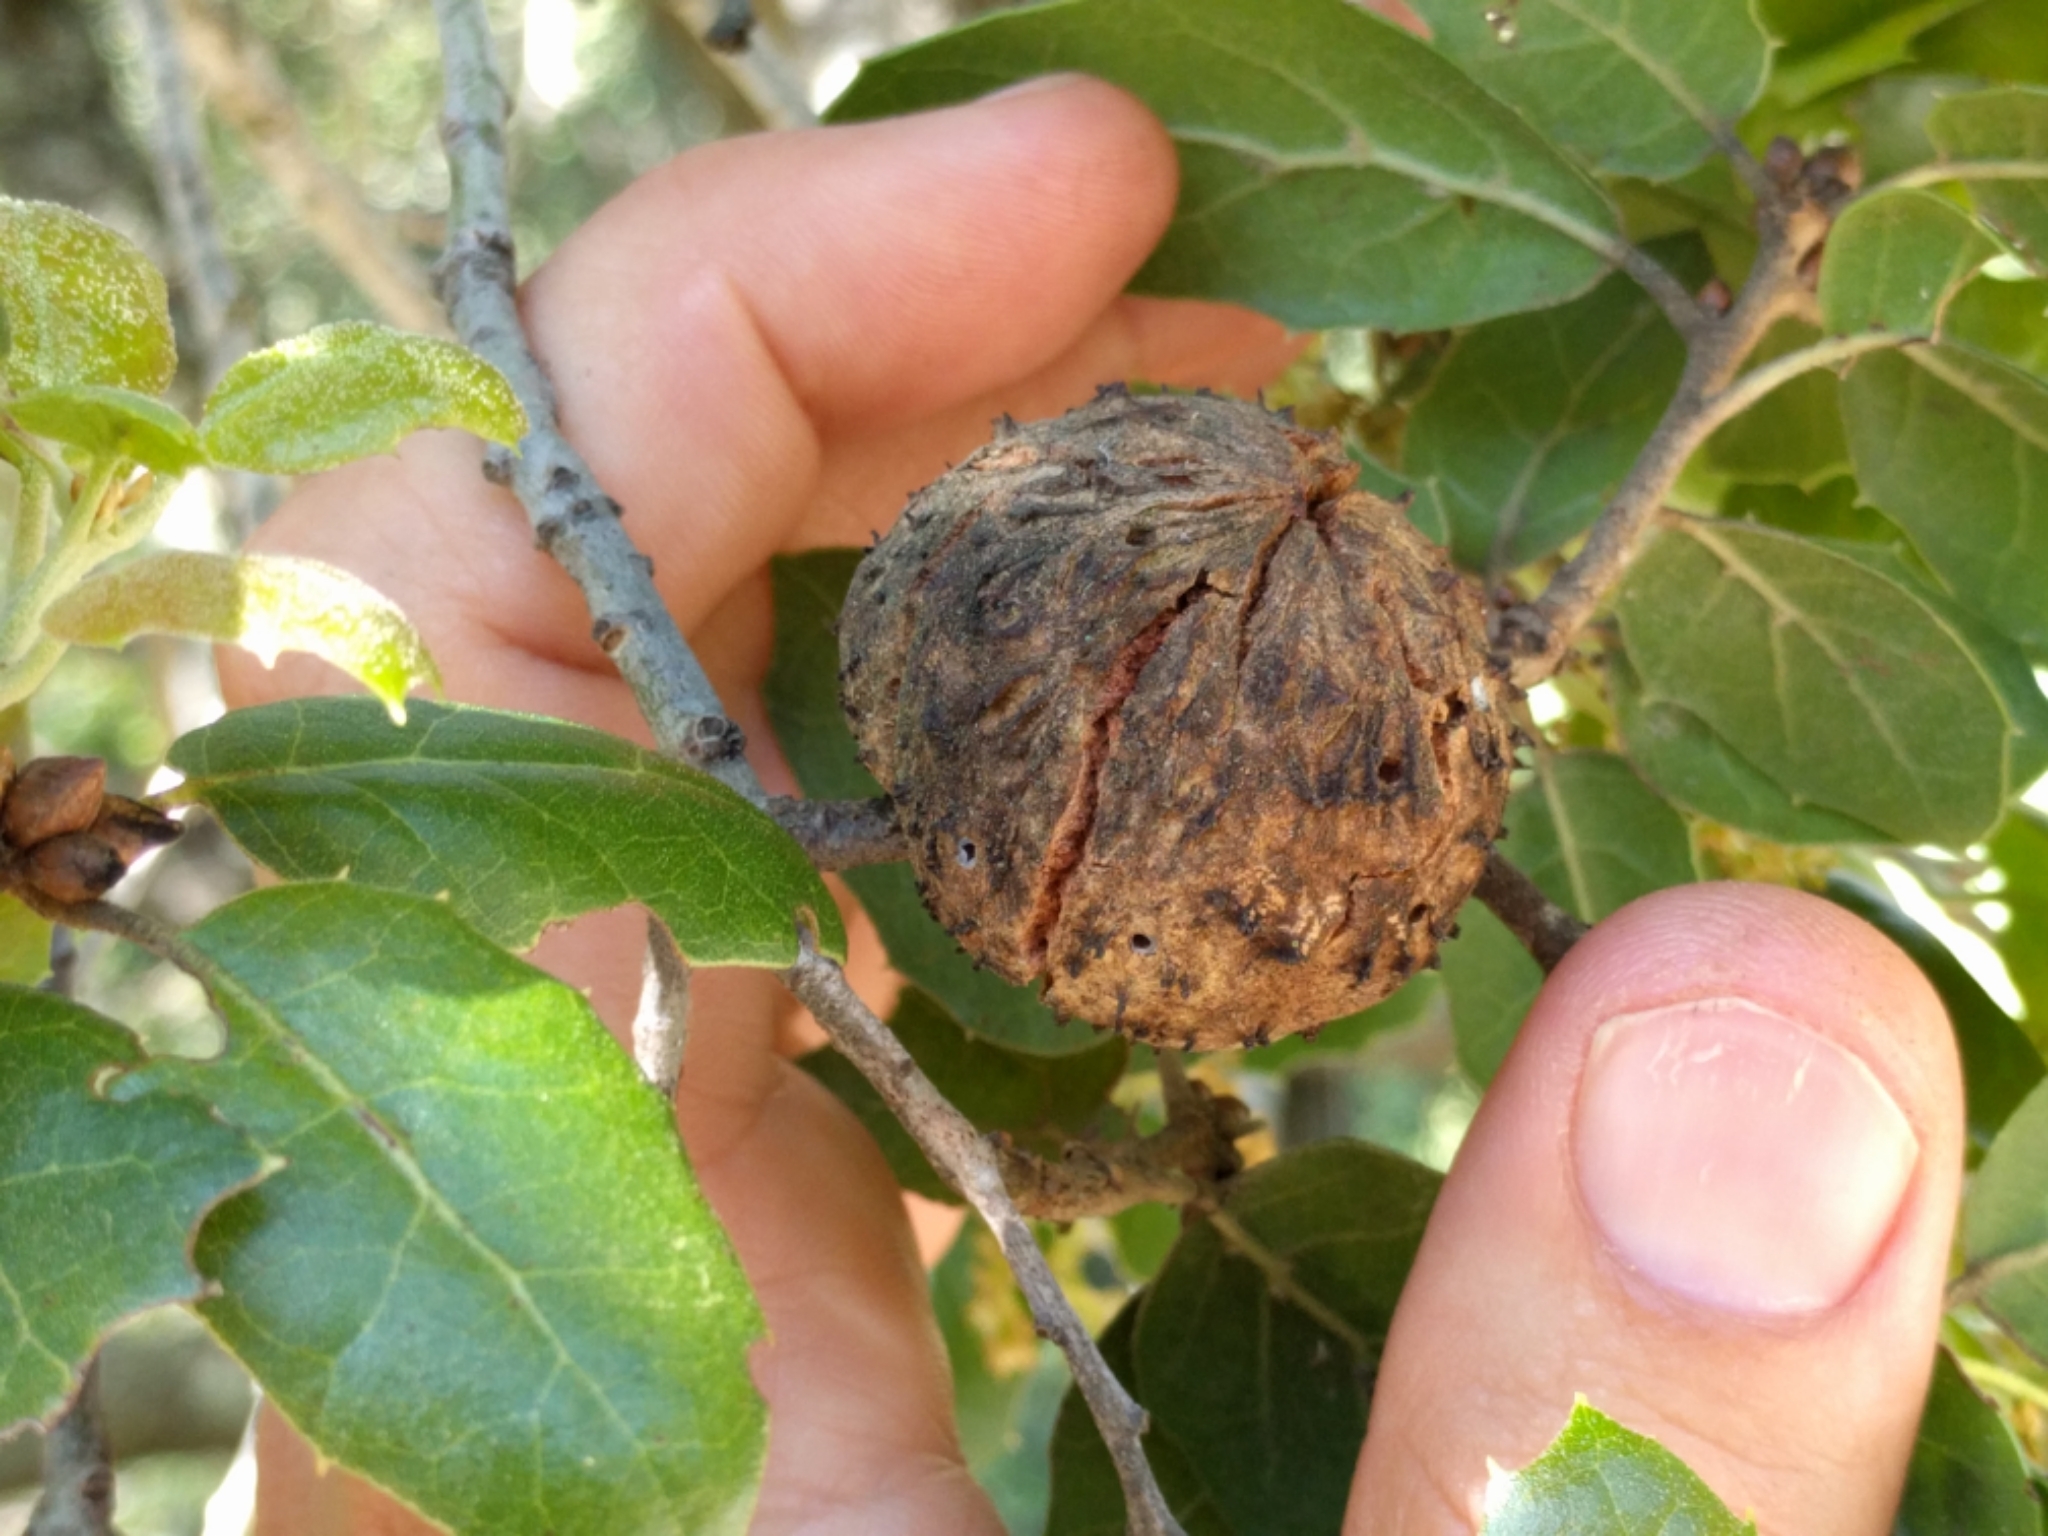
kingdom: Animalia
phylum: Arthropoda
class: Insecta
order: Hymenoptera
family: Cynipidae
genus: Amphibolips
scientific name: Amphibolips quercuspomiformis
